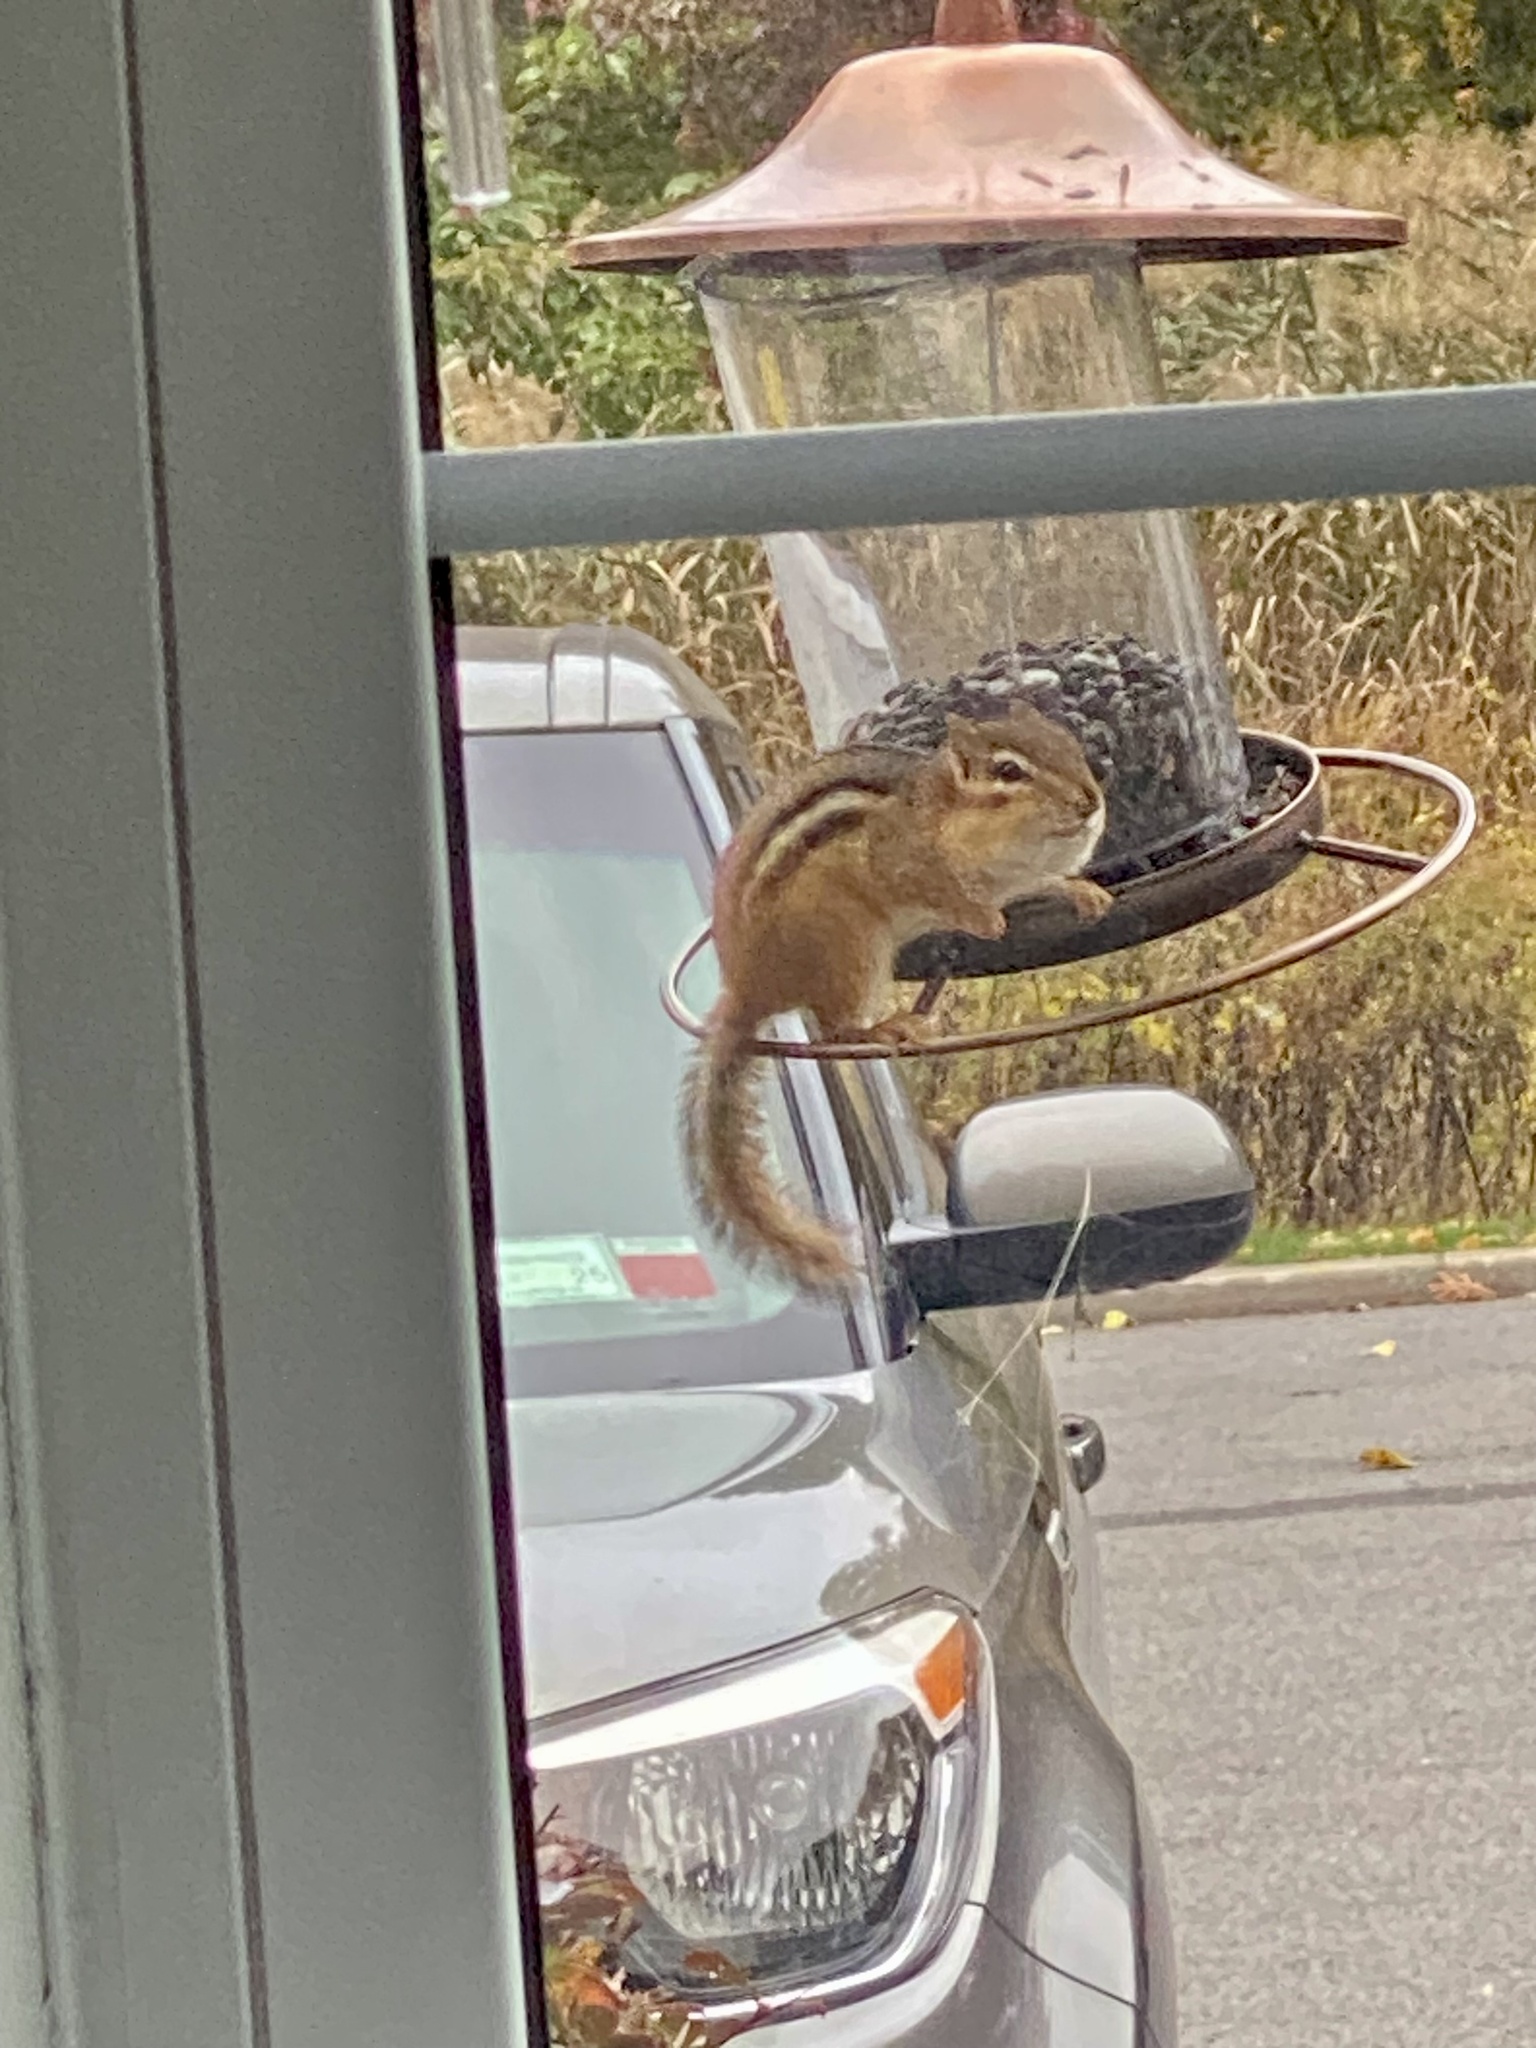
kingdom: Animalia
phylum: Chordata
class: Mammalia
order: Rodentia
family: Sciuridae
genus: Tamias
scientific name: Tamias striatus
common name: Eastern chipmunk
